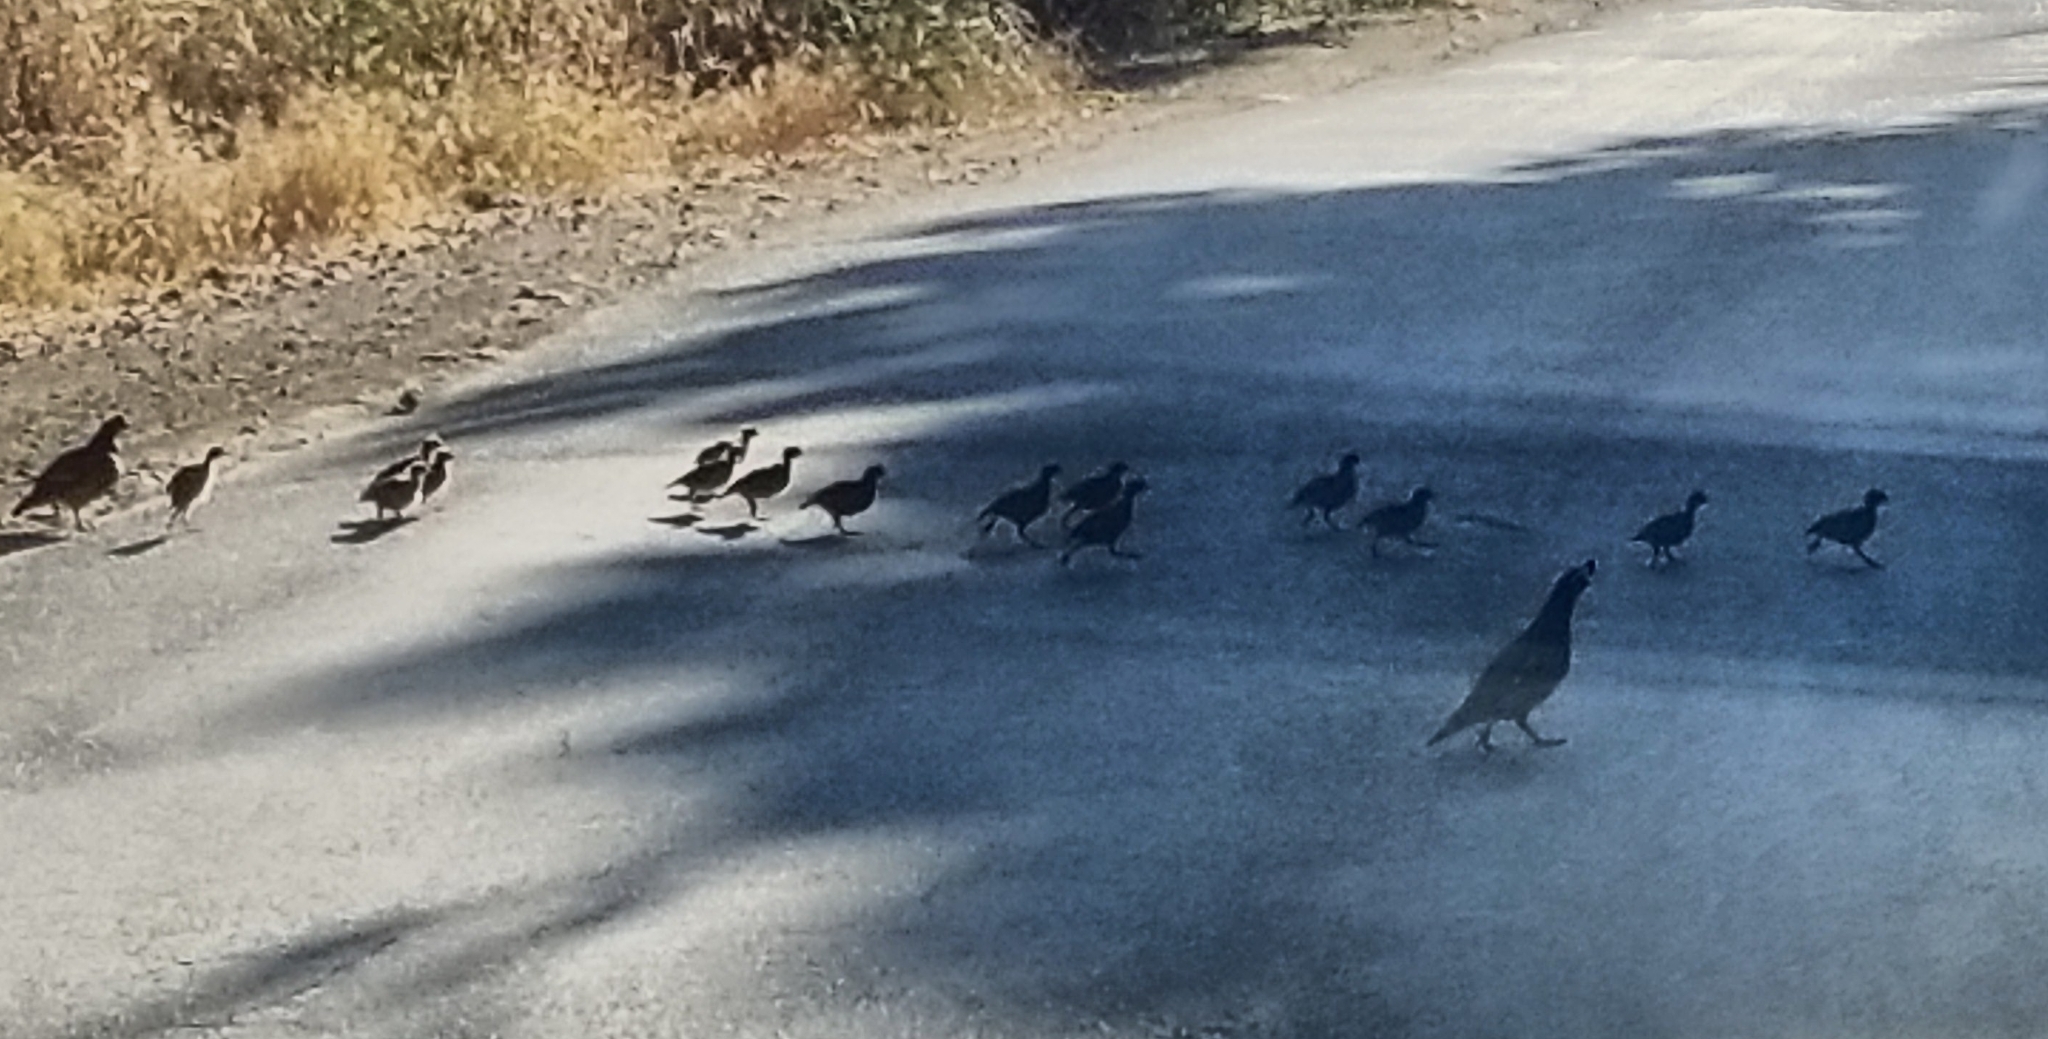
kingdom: Animalia
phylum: Chordata
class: Aves
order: Galliformes
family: Odontophoridae
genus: Callipepla
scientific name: Callipepla californica
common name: California quail
